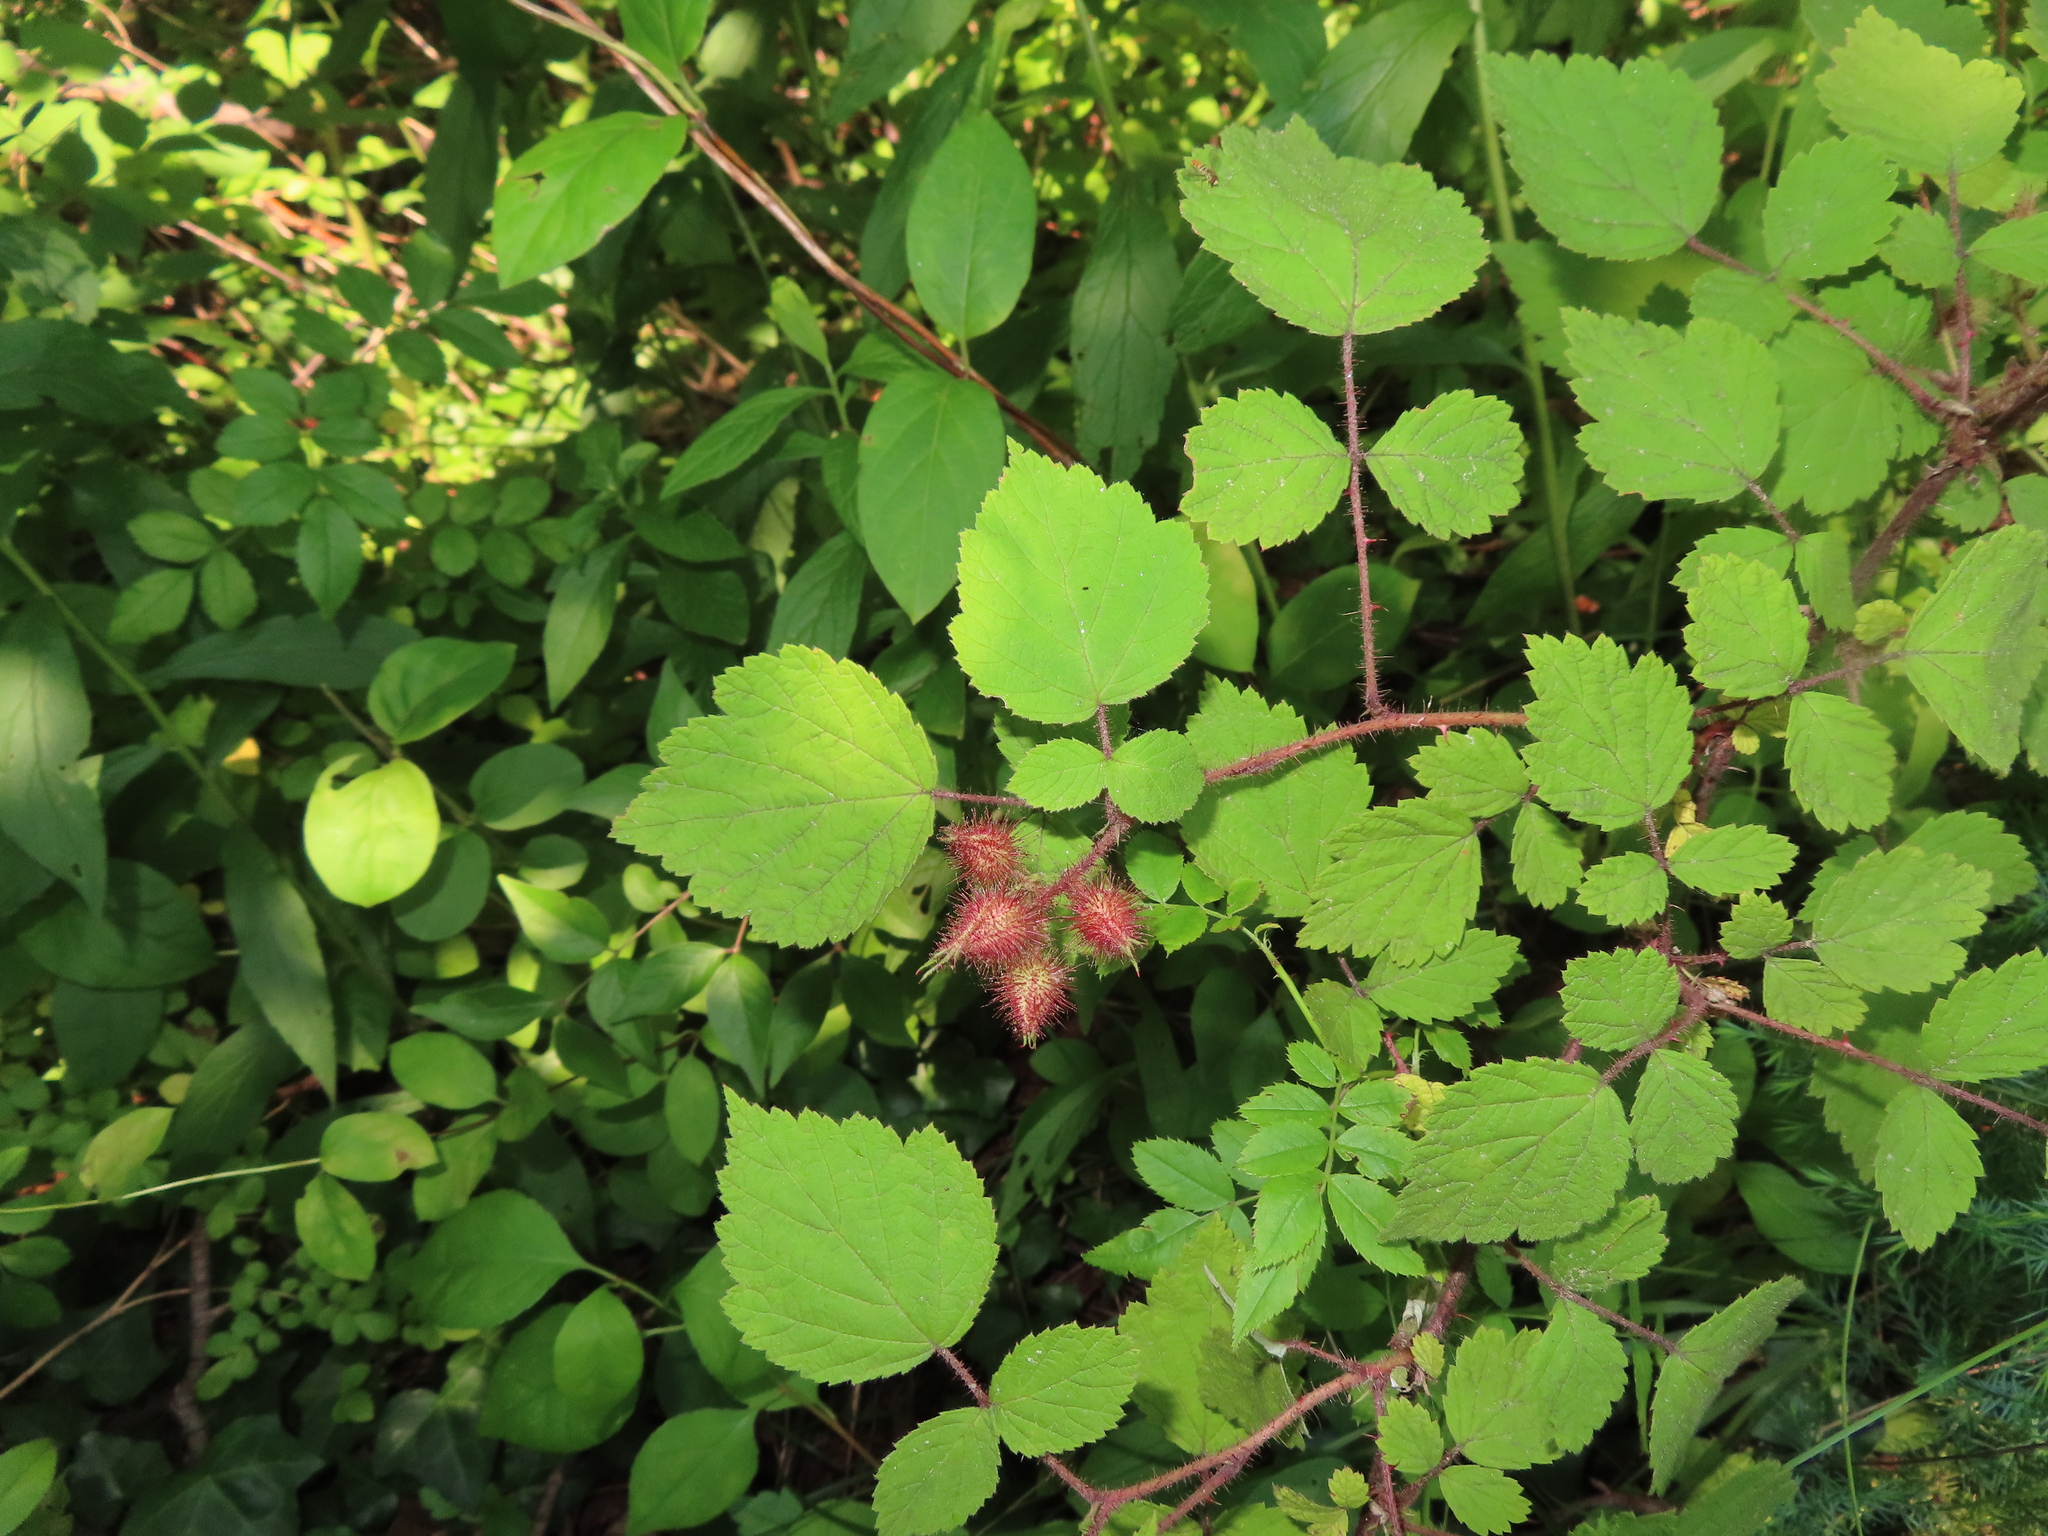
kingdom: Plantae
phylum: Tracheophyta
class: Magnoliopsida
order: Rosales
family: Rosaceae
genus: Rubus
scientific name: Rubus phoenicolasius
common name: Japanese wineberry
